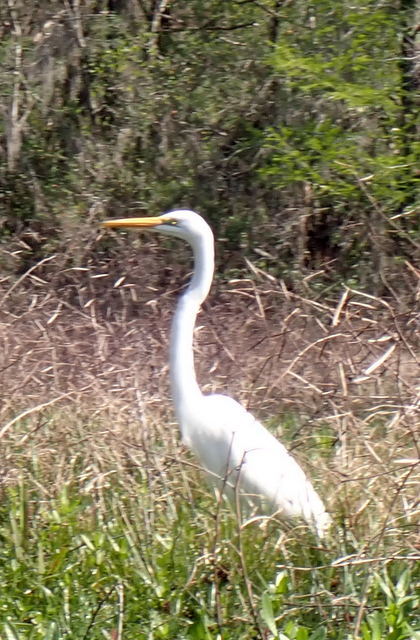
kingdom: Animalia
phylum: Chordata
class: Aves
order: Pelecaniformes
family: Ardeidae
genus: Ardea
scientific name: Ardea alba
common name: Great egret
